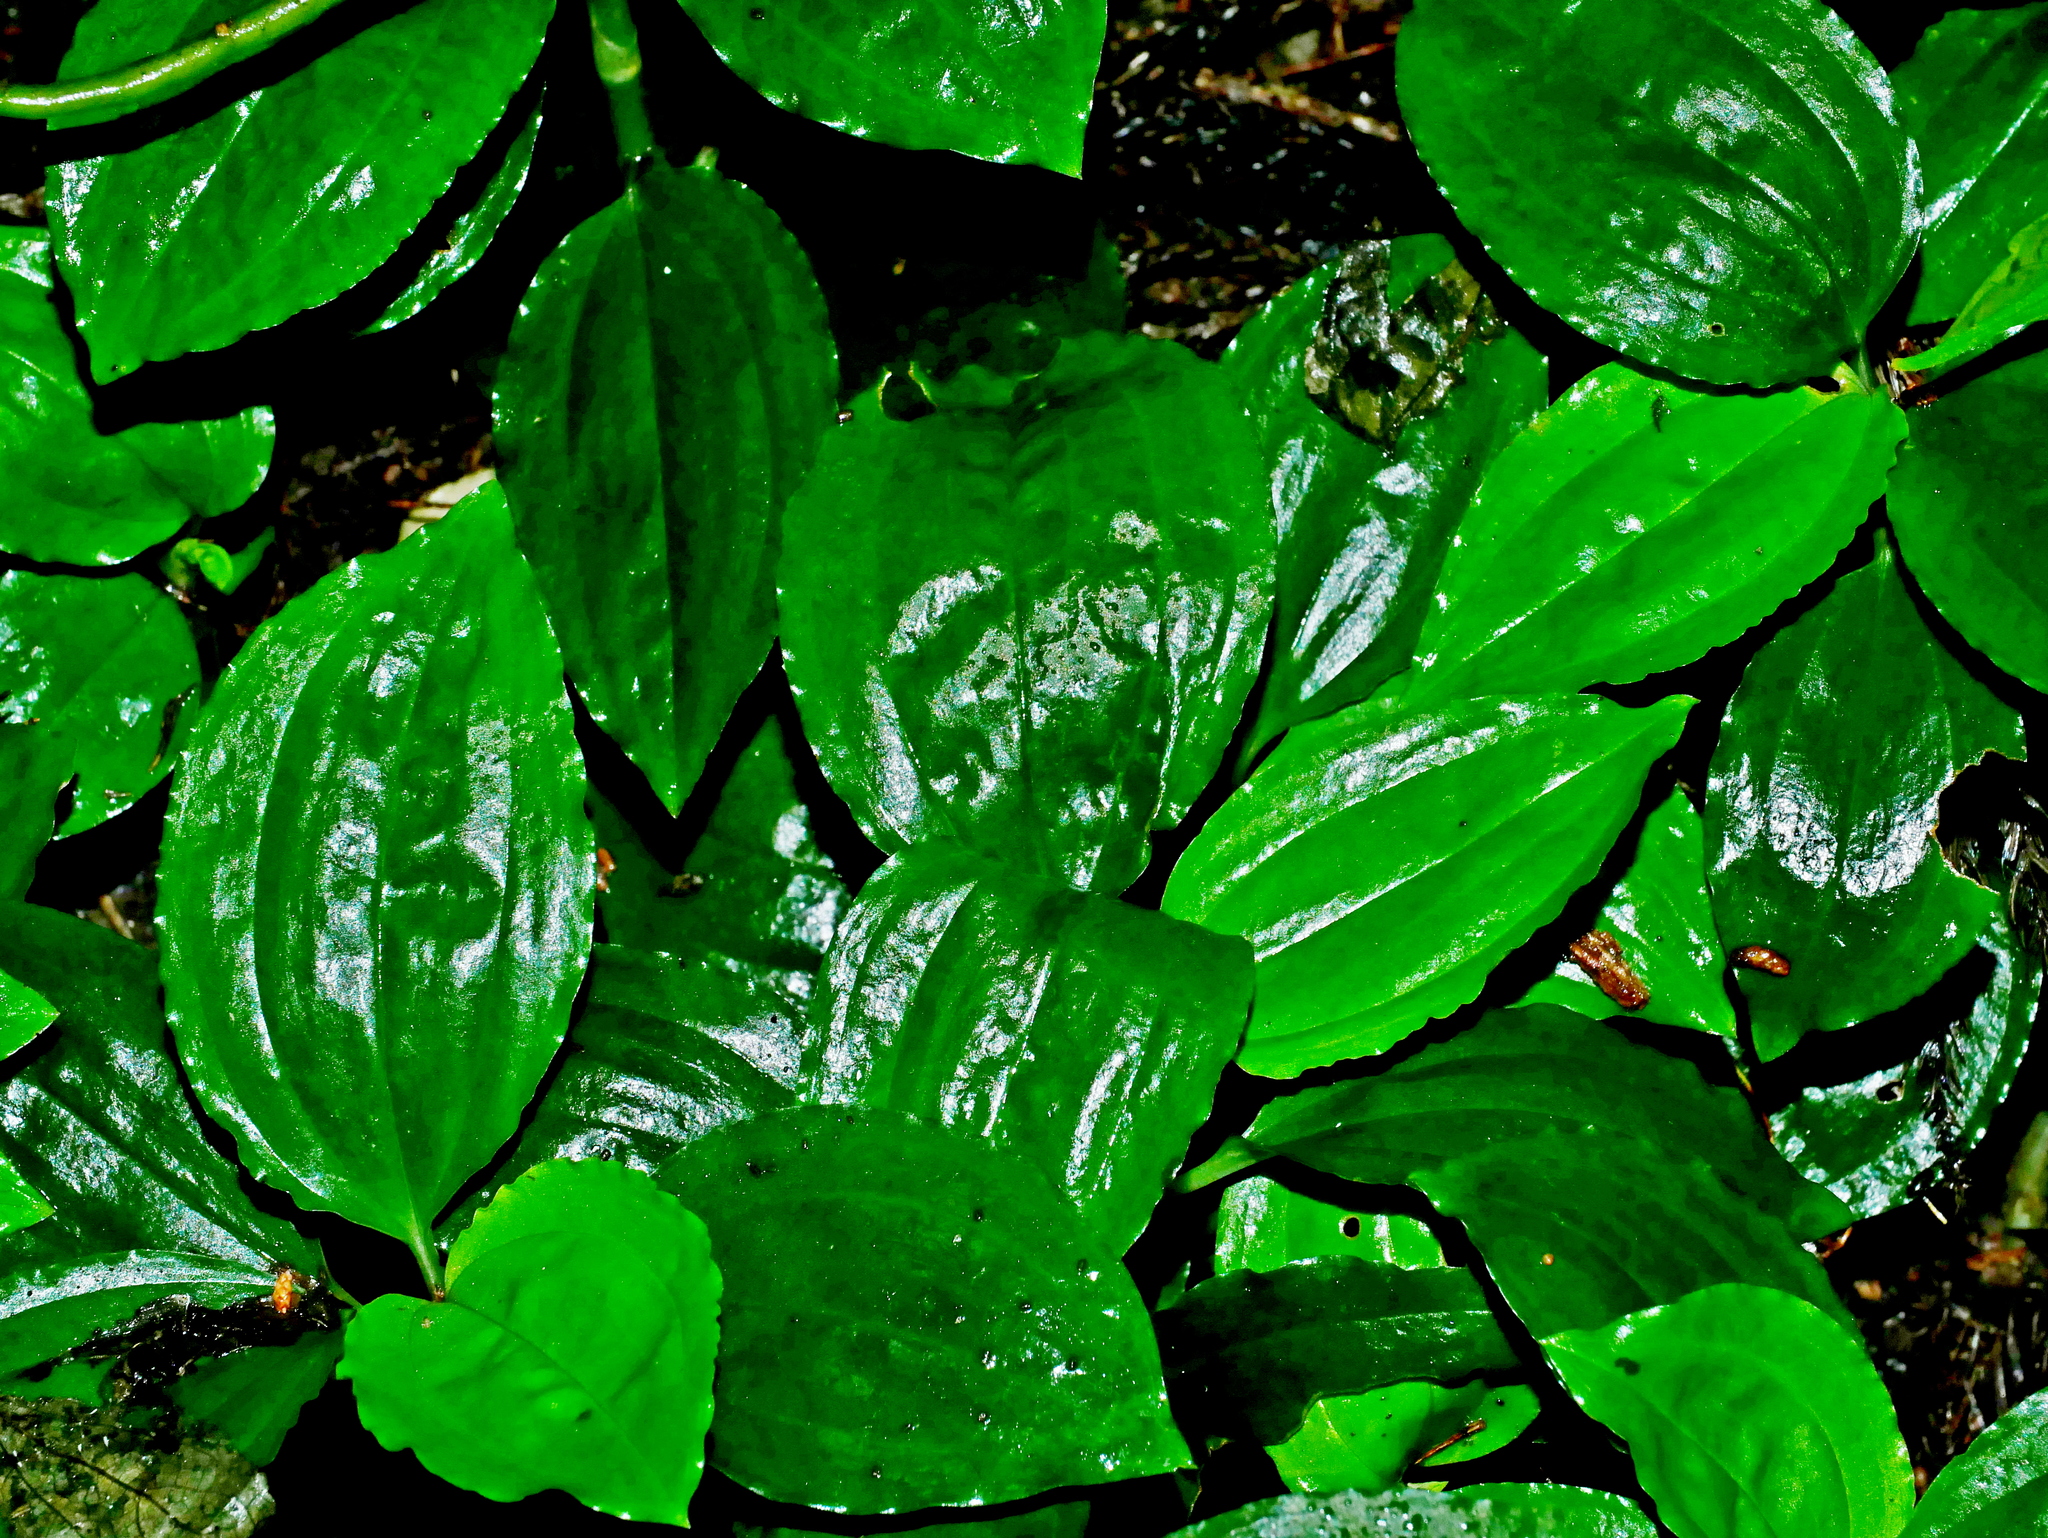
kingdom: Plantae
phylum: Tracheophyta
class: Liliopsida
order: Asparagales
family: Orchidaceae
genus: Odontochilus
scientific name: Odontochilus tashiroi
